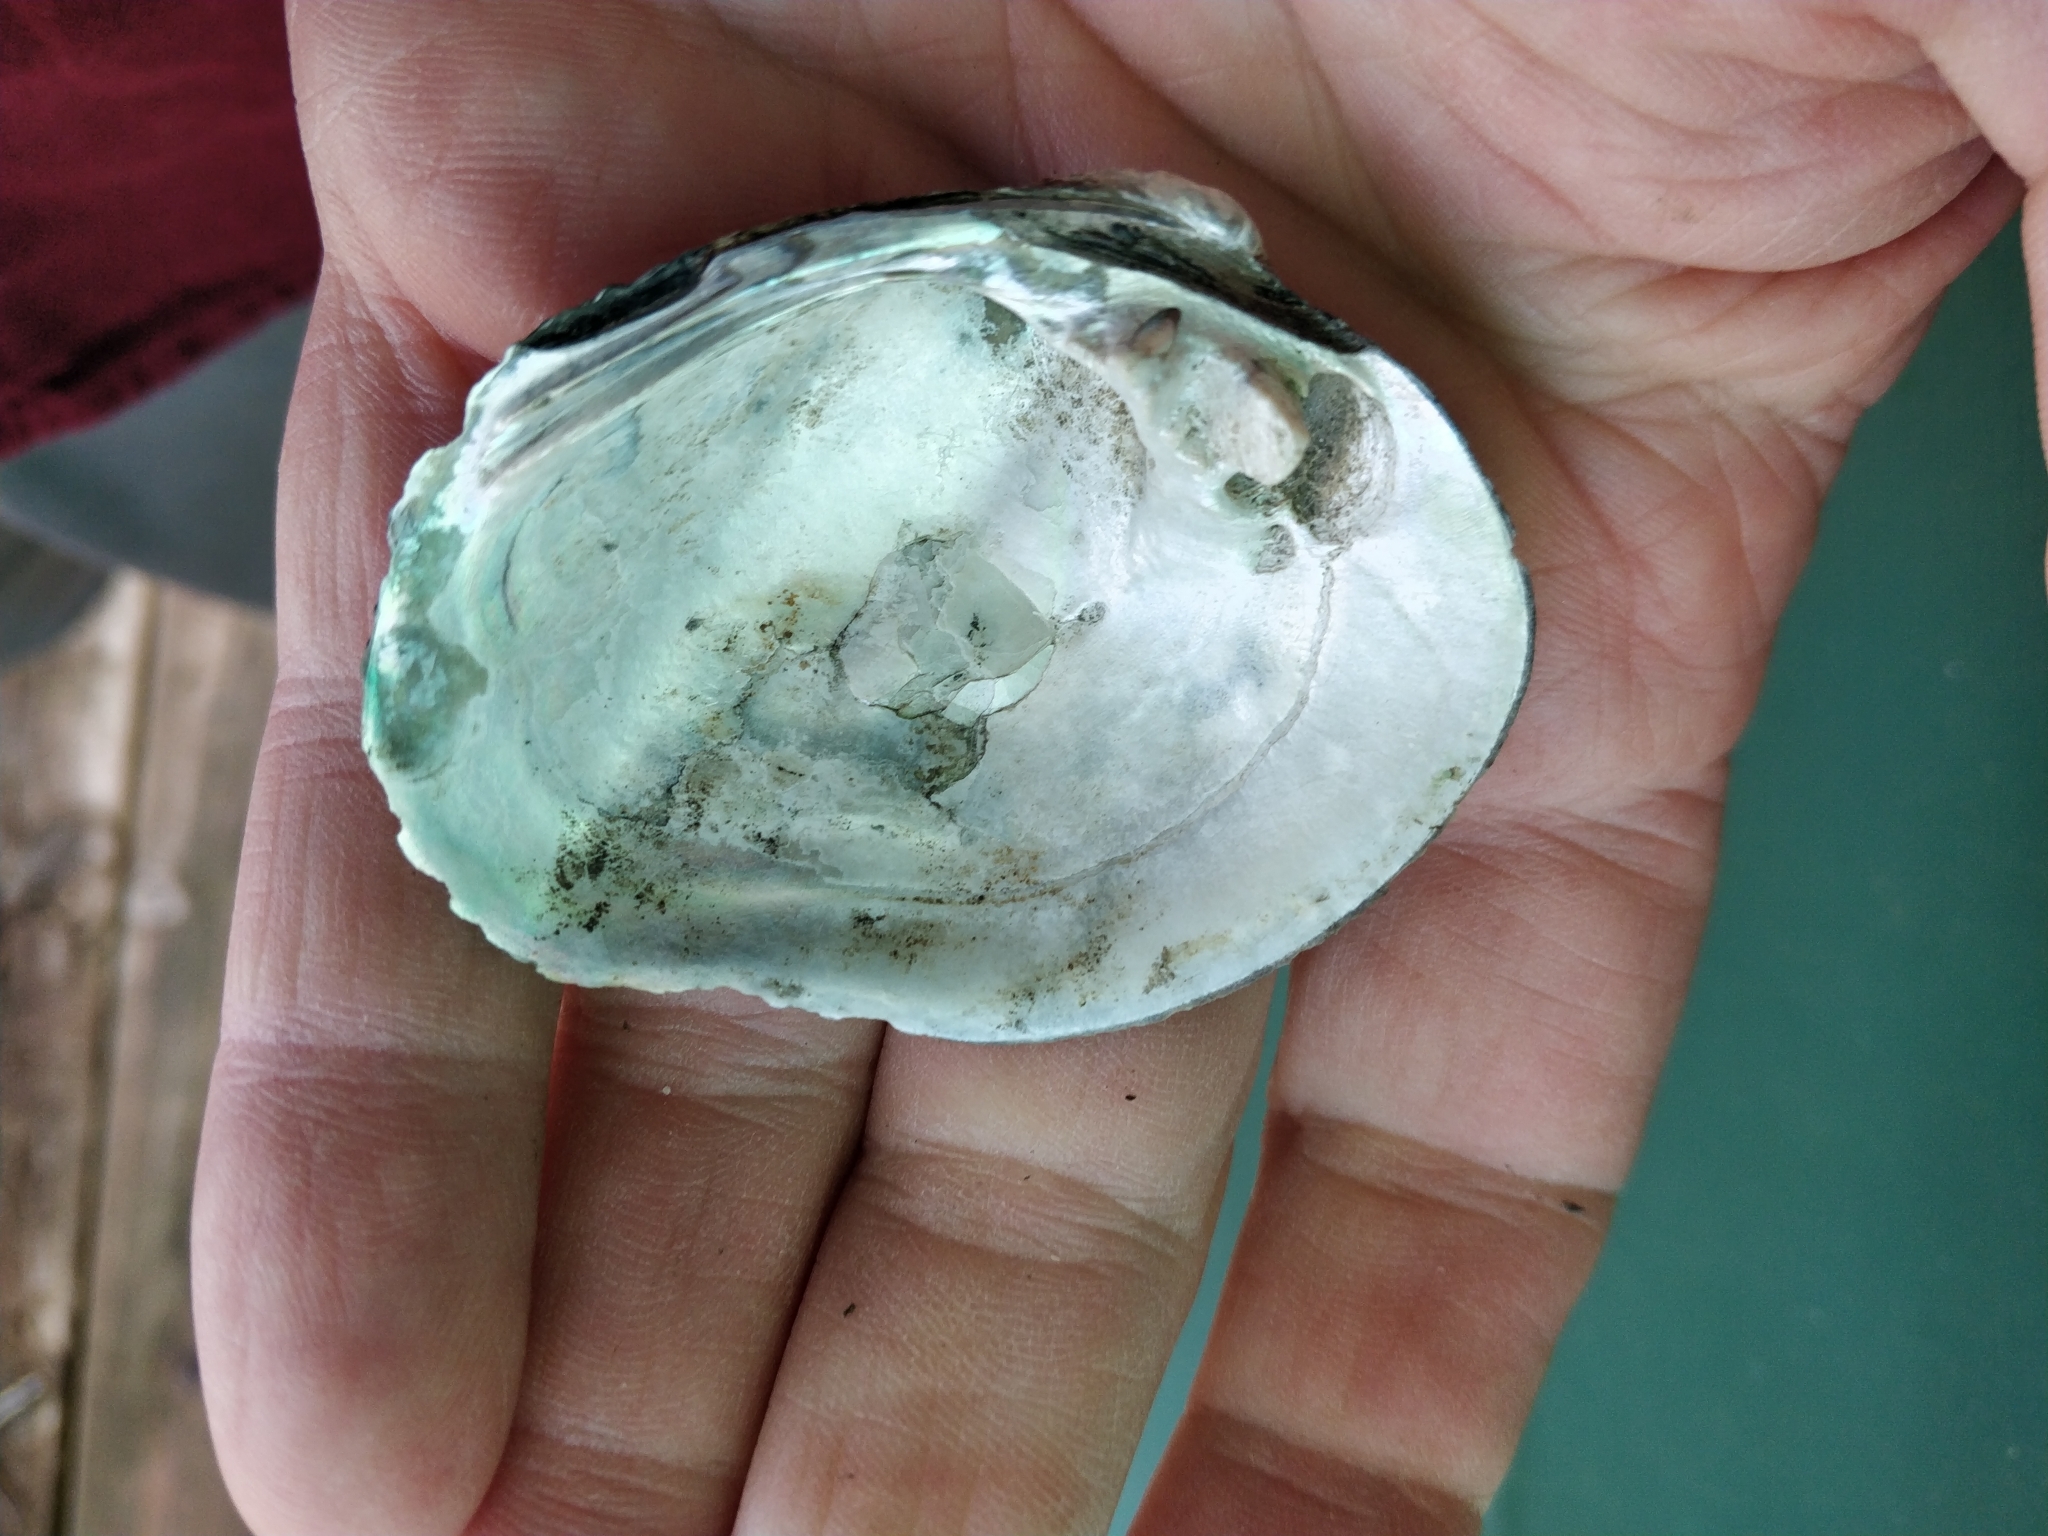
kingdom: Animalia
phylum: Mollusca
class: Bivalvia
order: Unionida
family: Unionidae
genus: Quadrula
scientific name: Quadrula quadrula
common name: Mapleleaf
